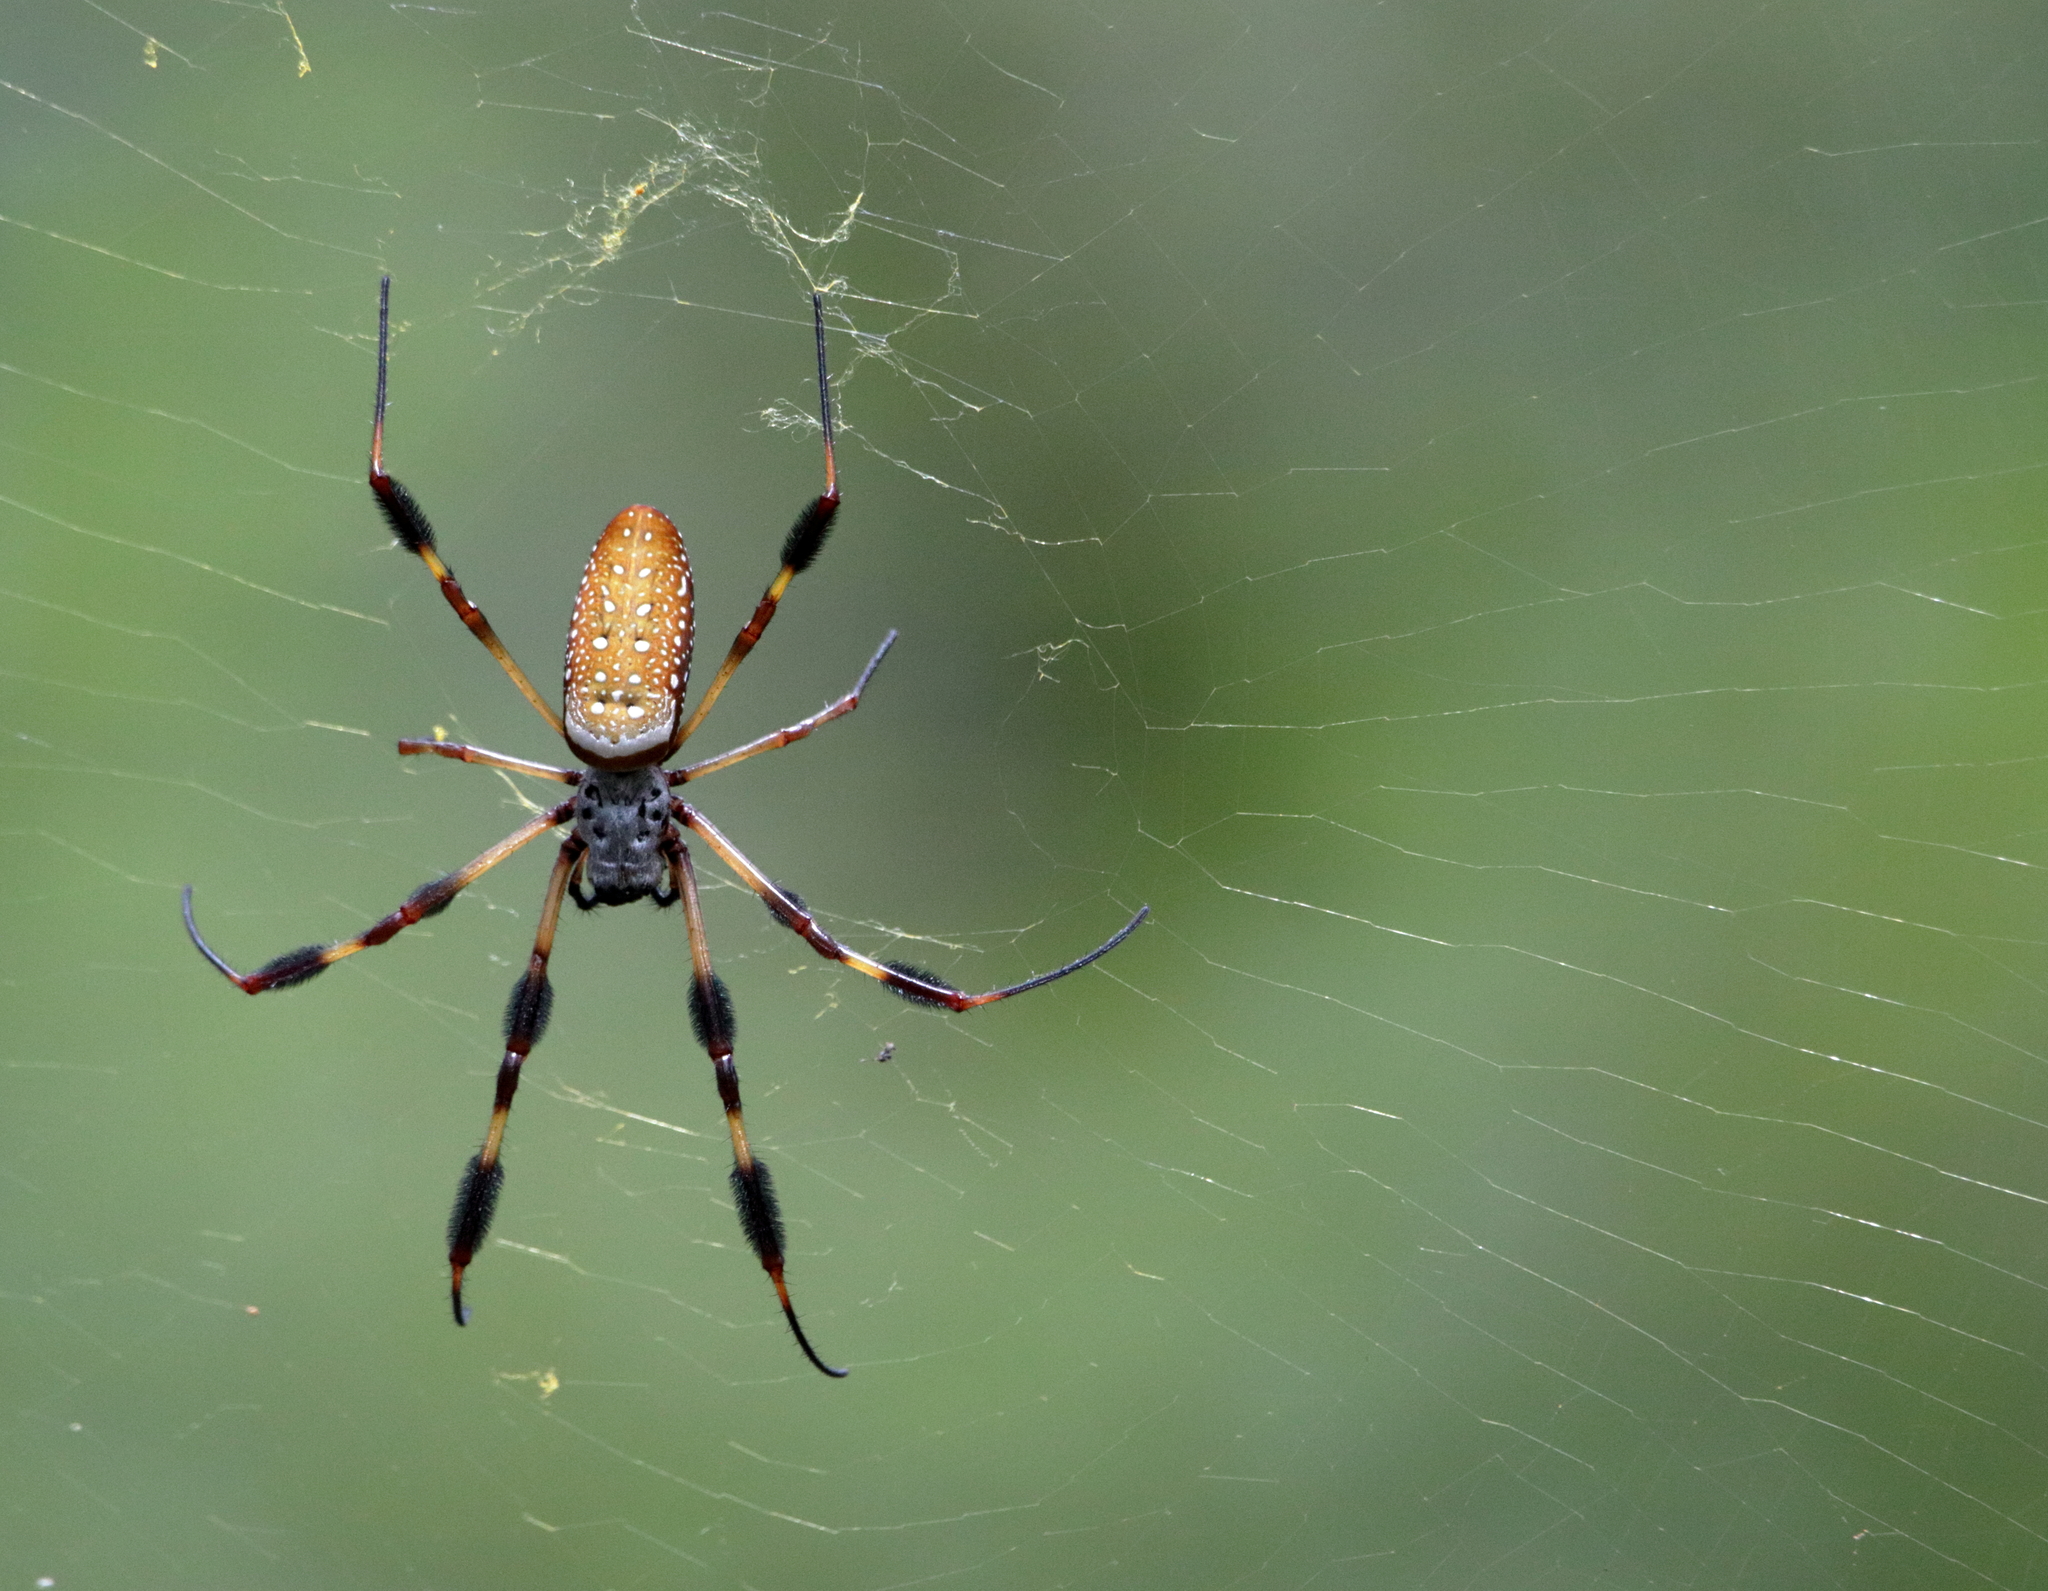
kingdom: Animalia
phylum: Arthropoda
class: Arachnida
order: Araneae
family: Araneidae
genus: Trichonephila
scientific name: Trichonephila clavipes
